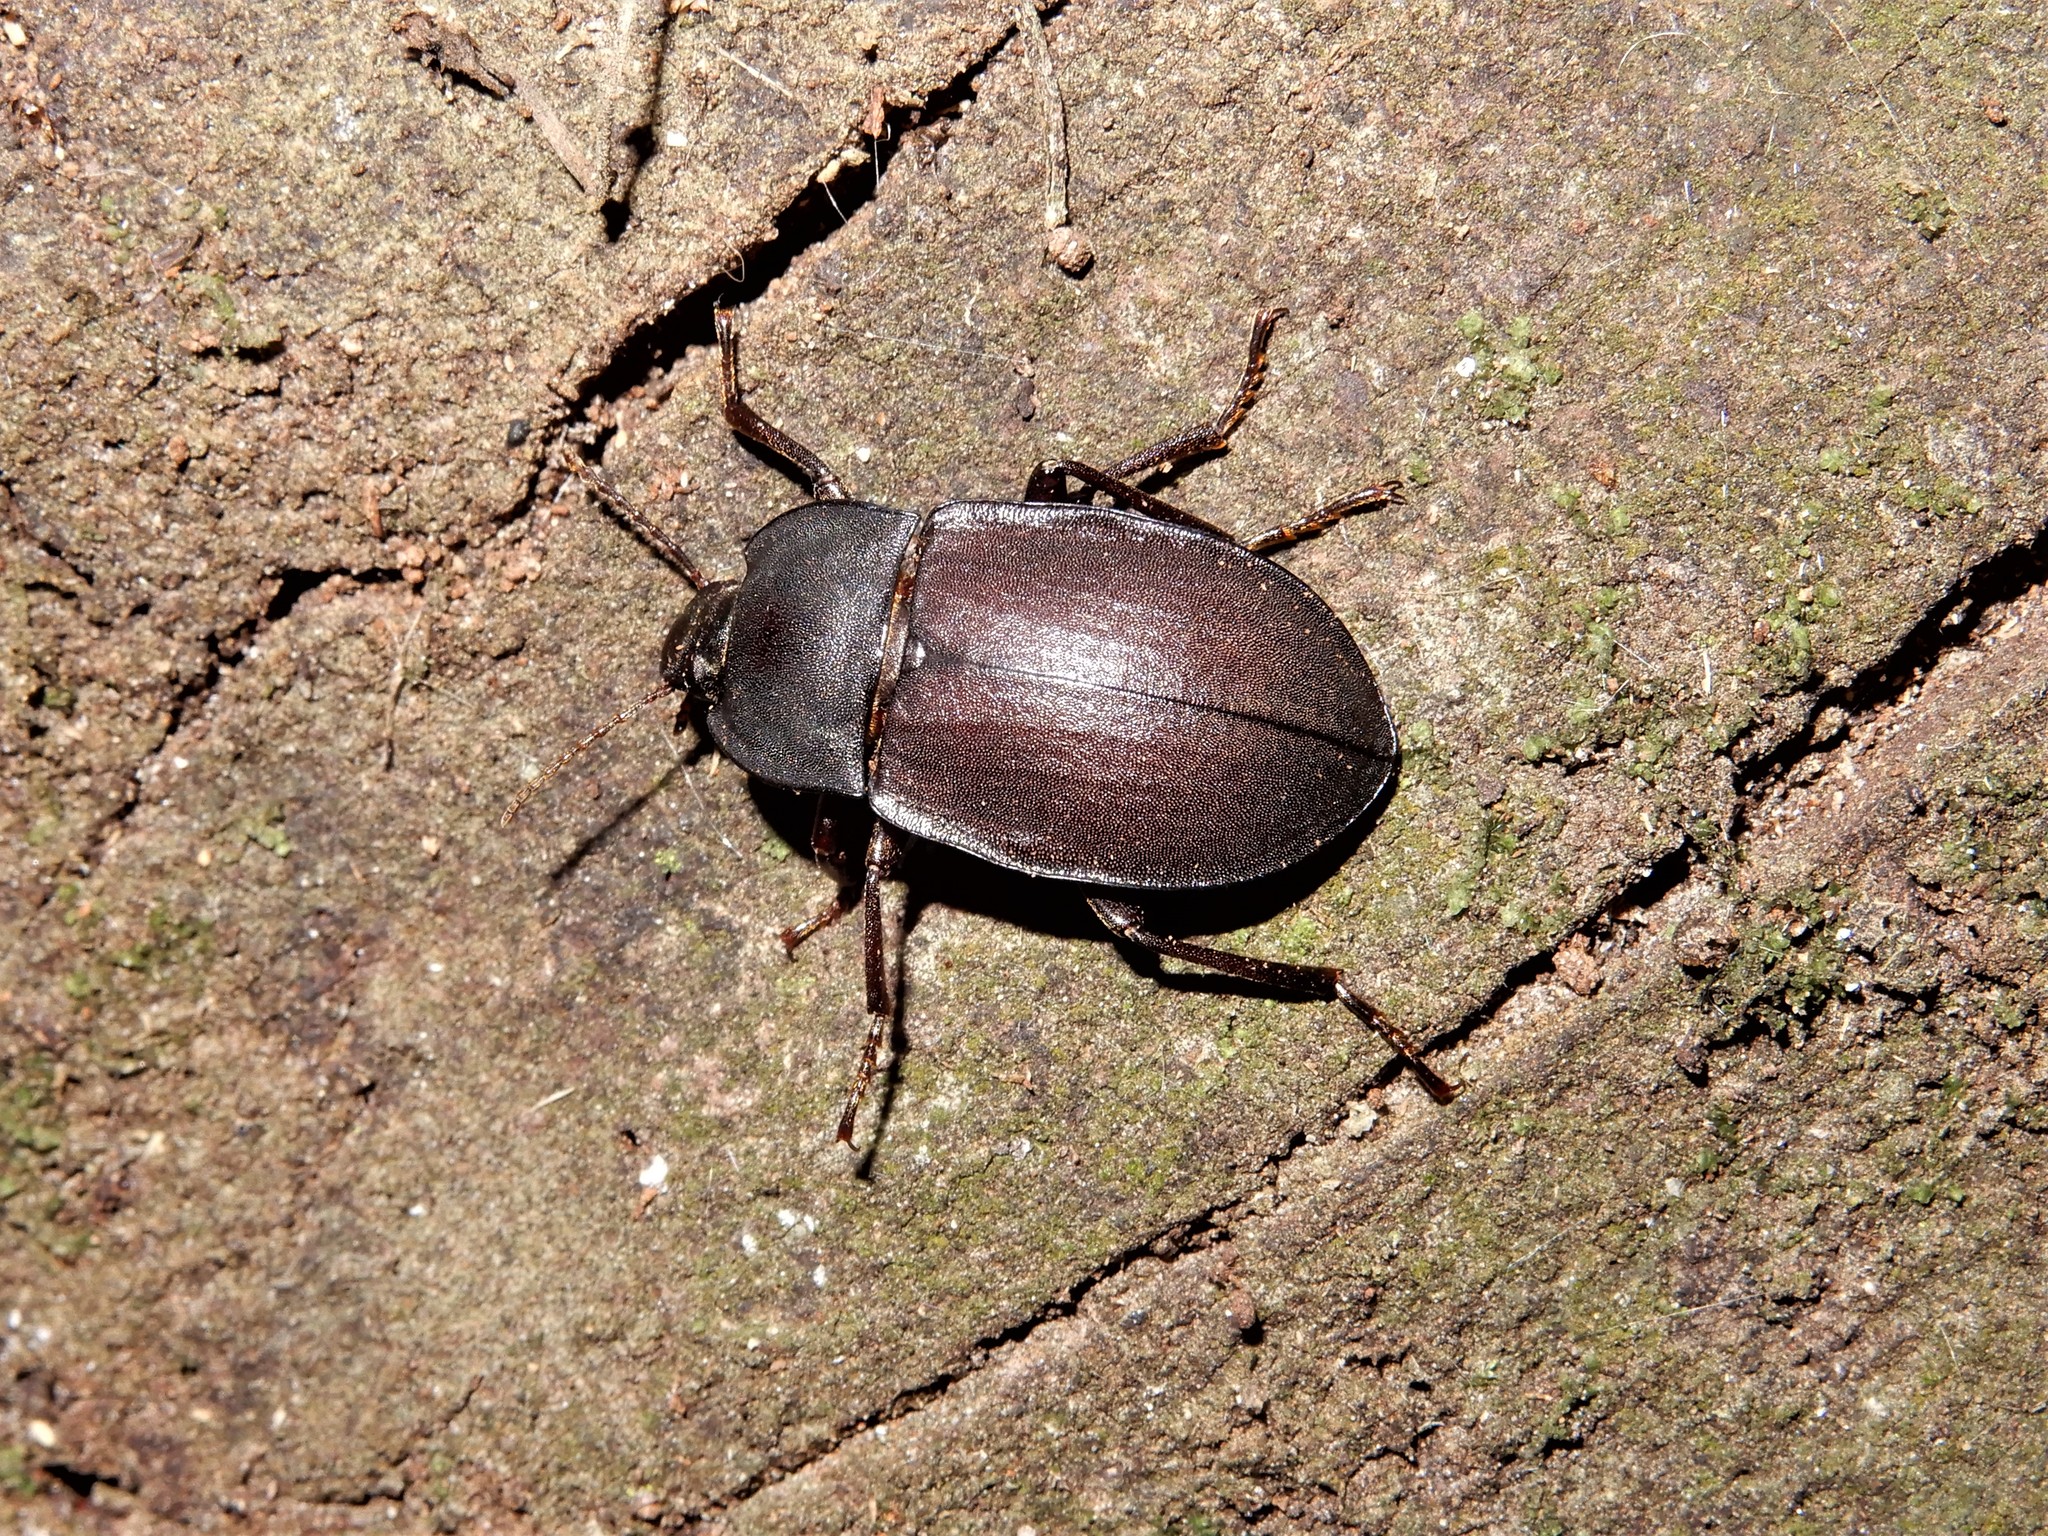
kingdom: Animalia
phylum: Arthropoda
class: Insecta
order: Coleoptera
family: Tenebrionidae
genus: Mimopeus
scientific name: Mimopeus
